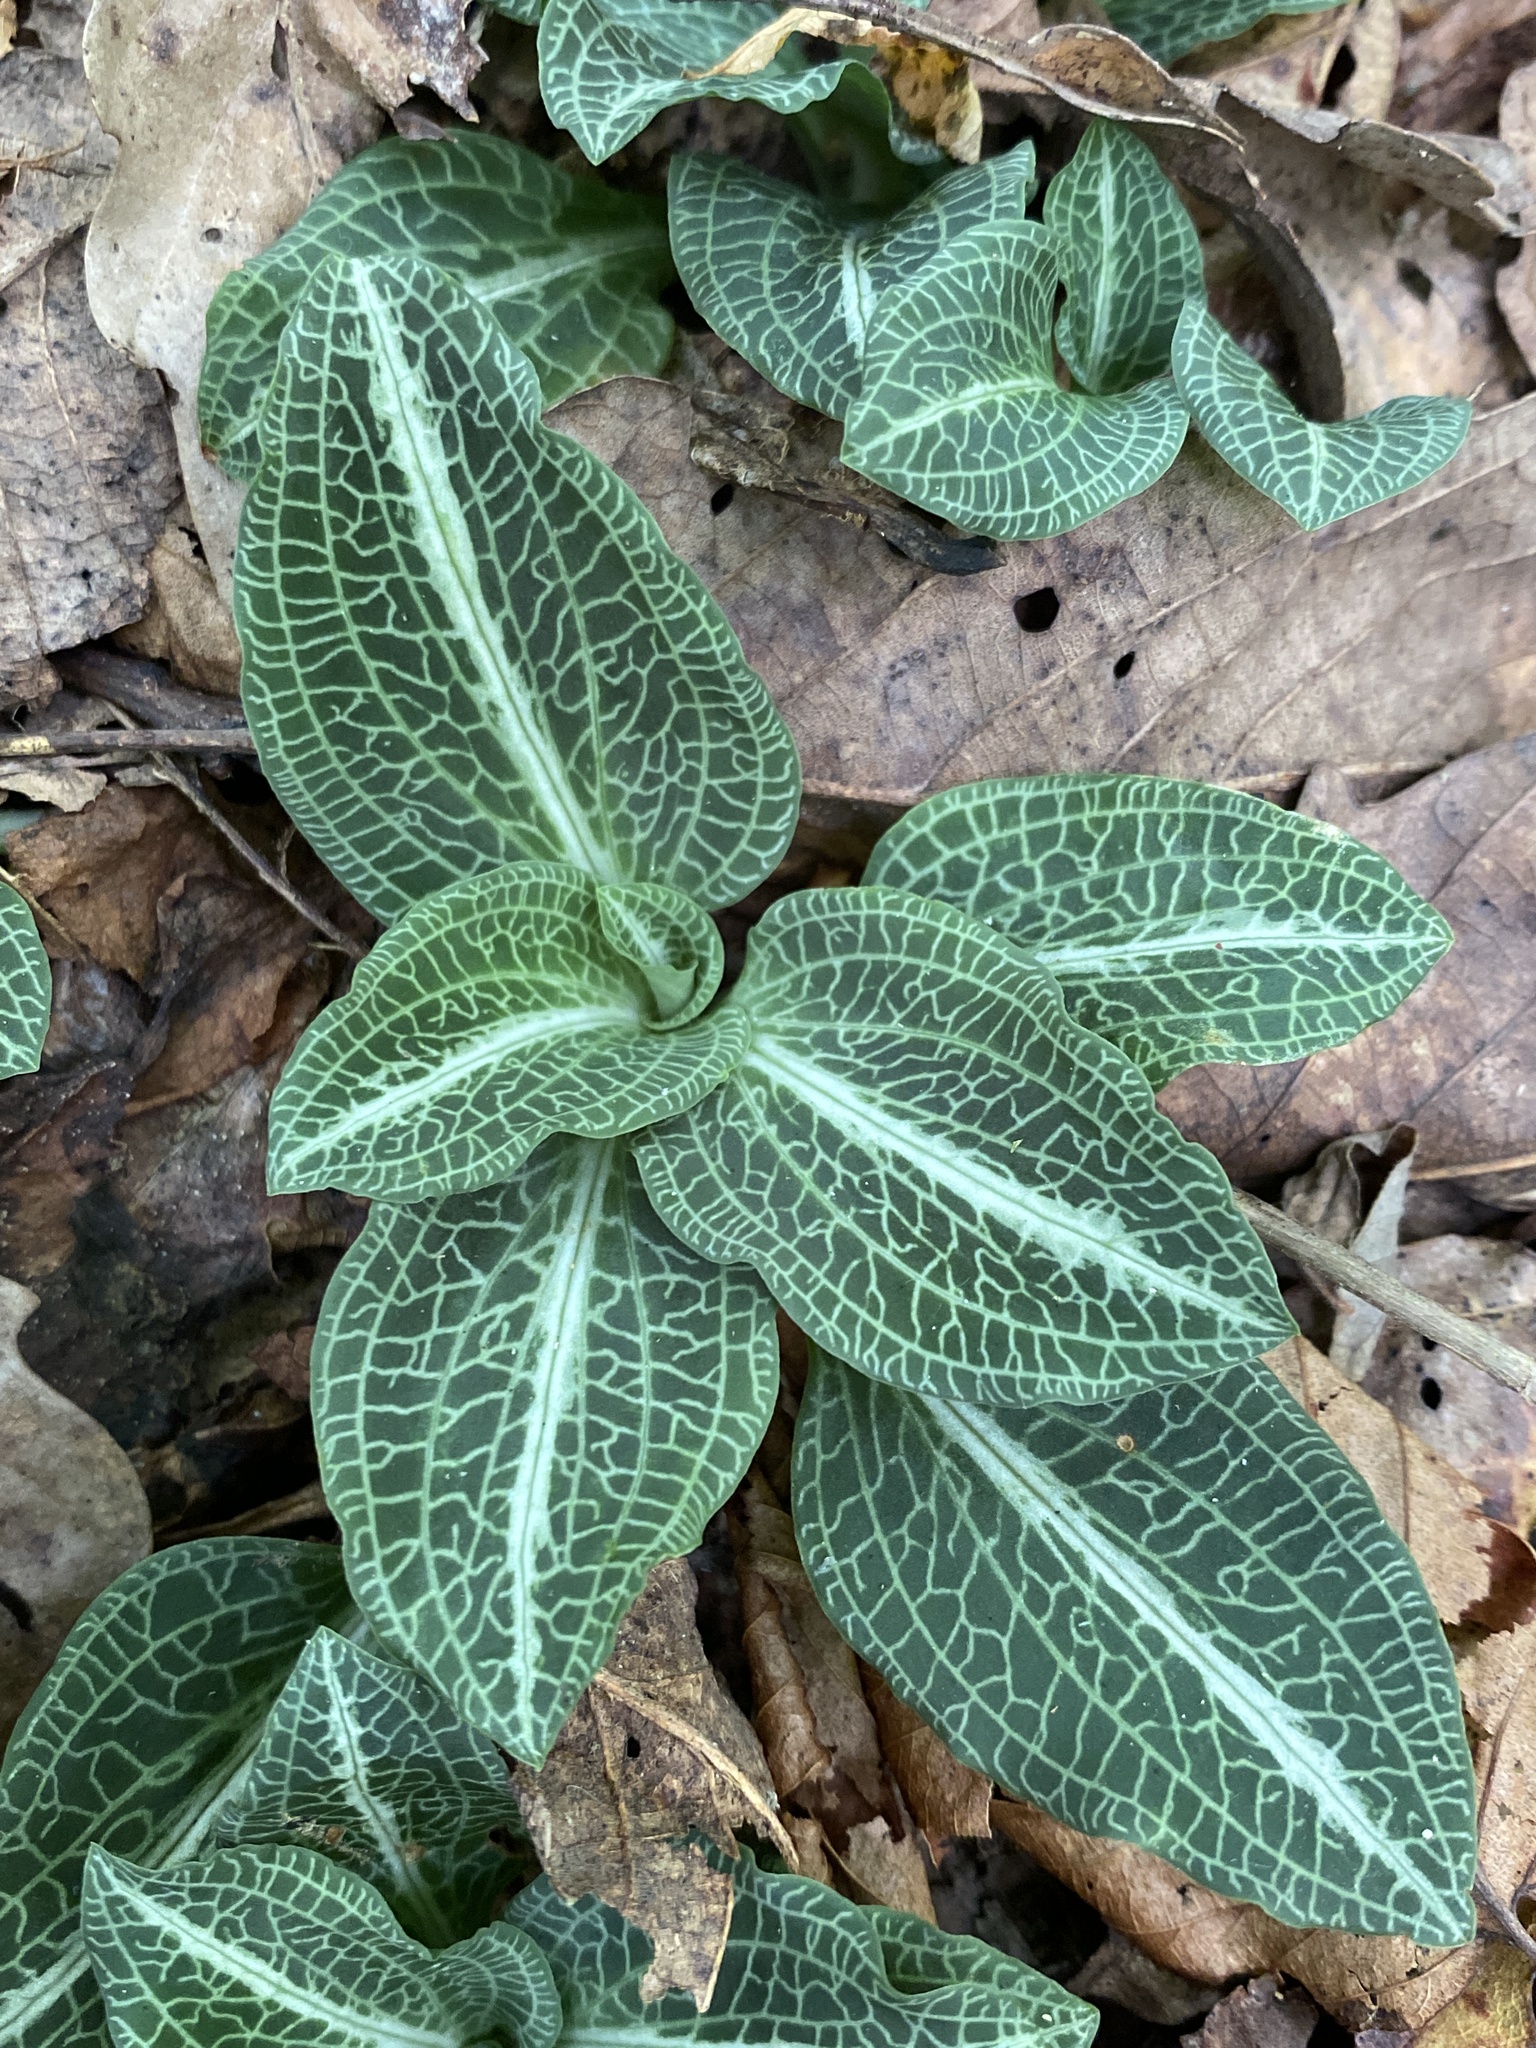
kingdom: Plantae
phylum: Tracheophyta
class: Liliopsida
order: Asparagales
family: Orchidaceae
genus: Goodyera
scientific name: Goodyera pubescens
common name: Downy rattlesnake-plantain
